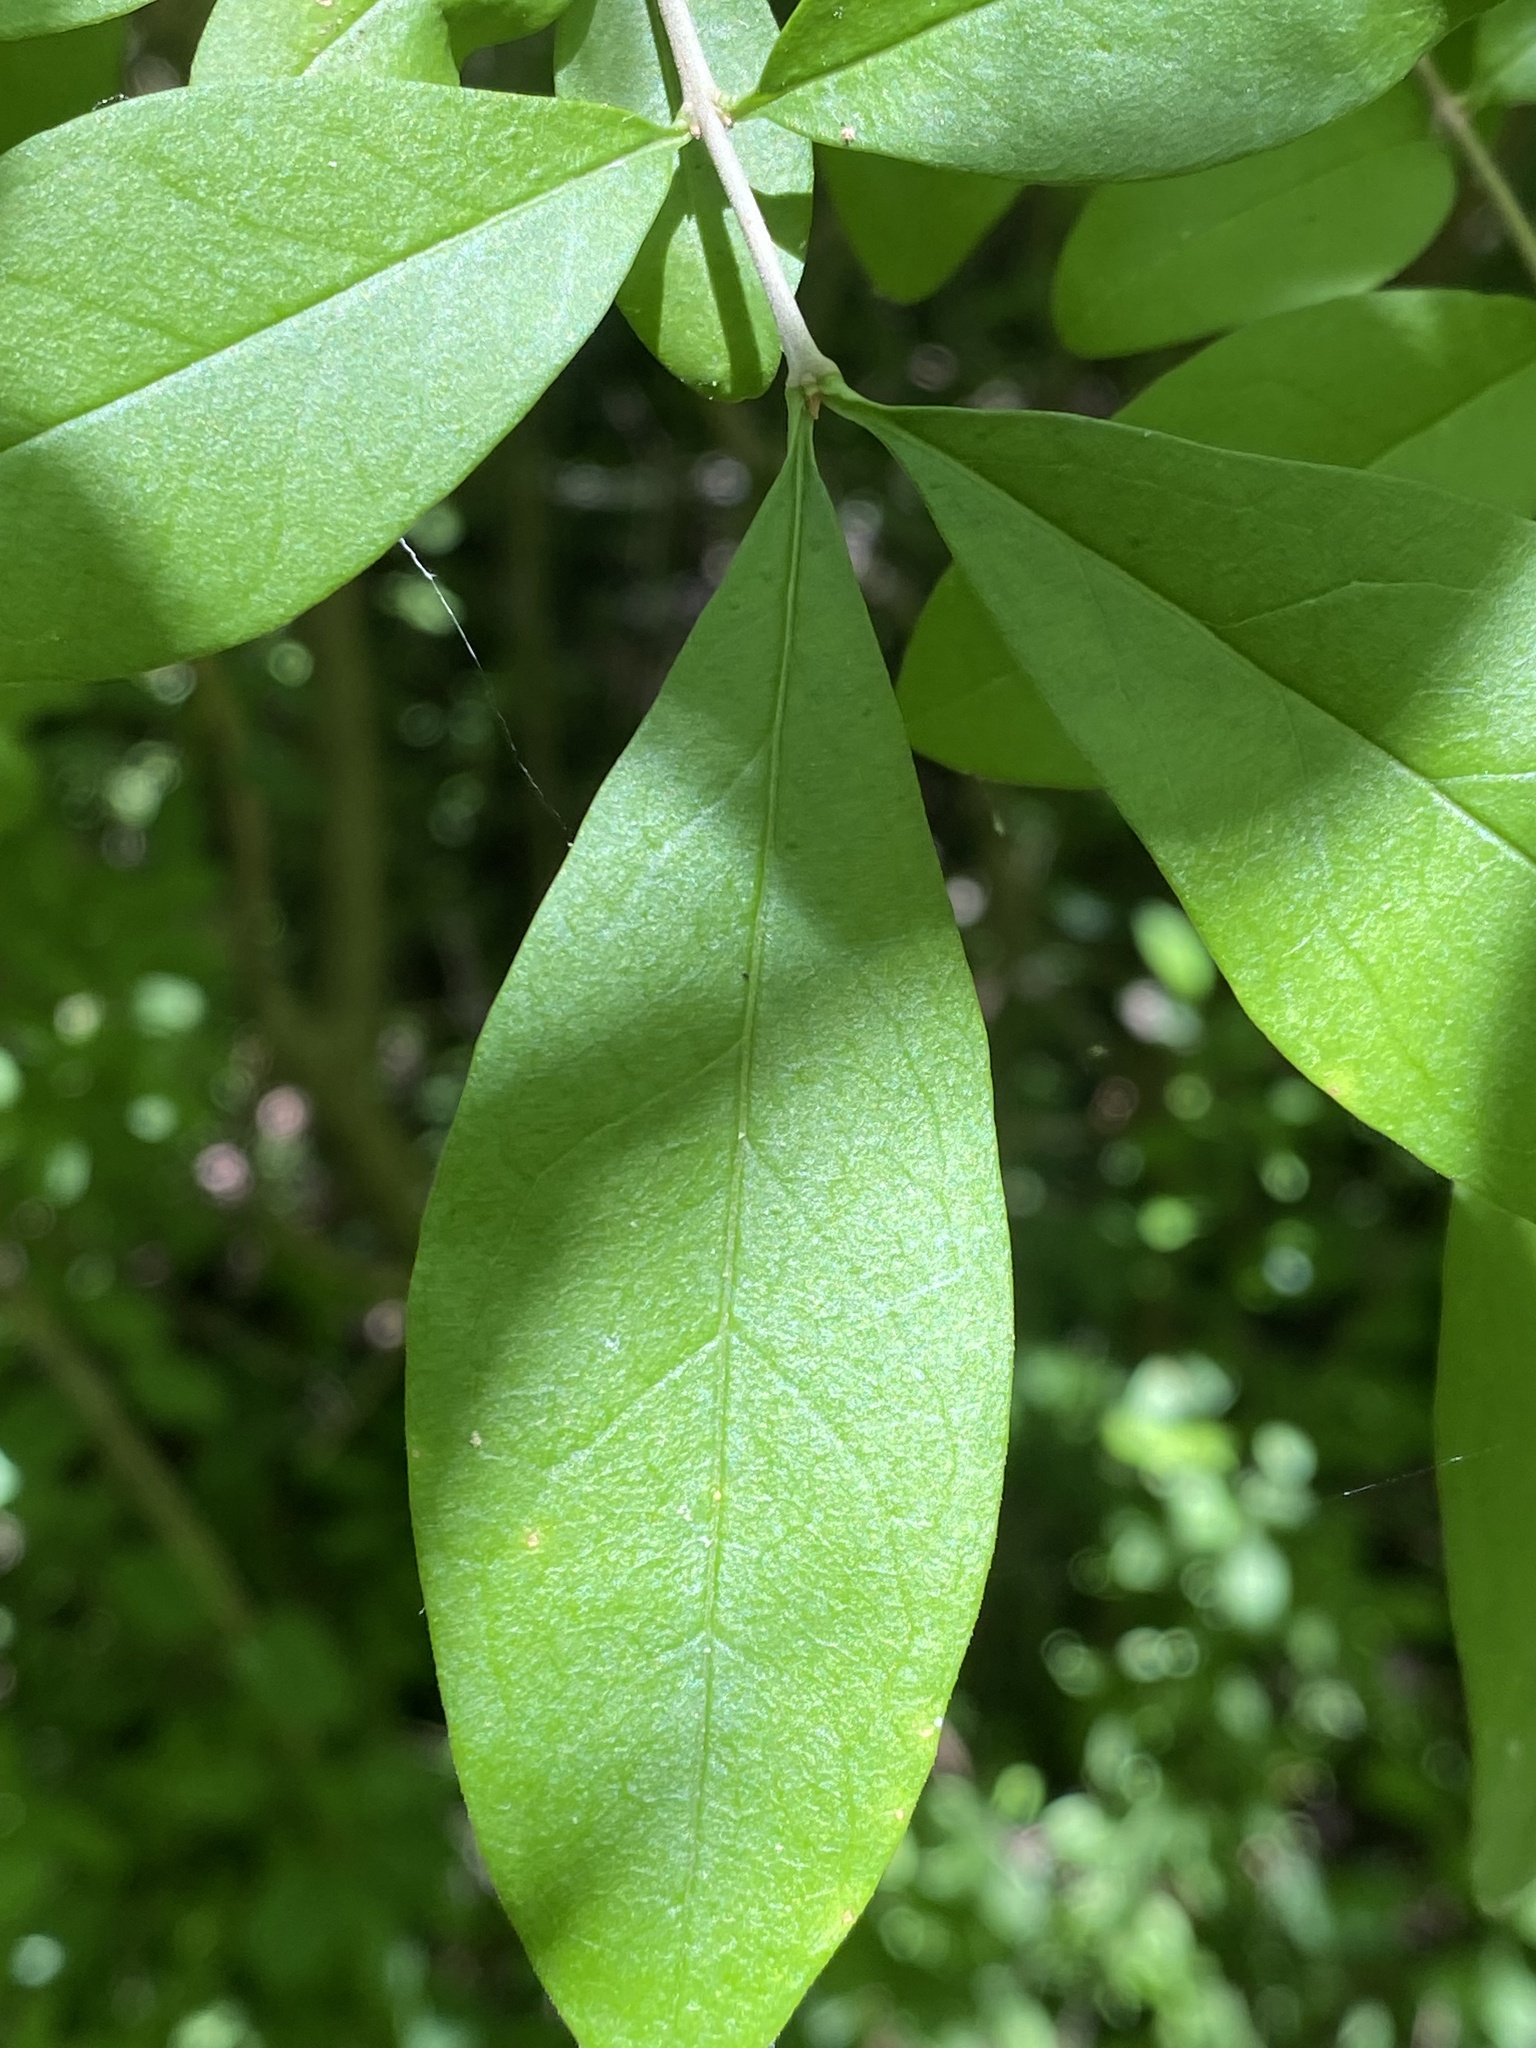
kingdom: Plantae
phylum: Tracheophyta
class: Magnoliopsida
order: Lamiales
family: Oleaceae
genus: Ligustrum
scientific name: Ligustrum obtusifolium
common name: Border privet
